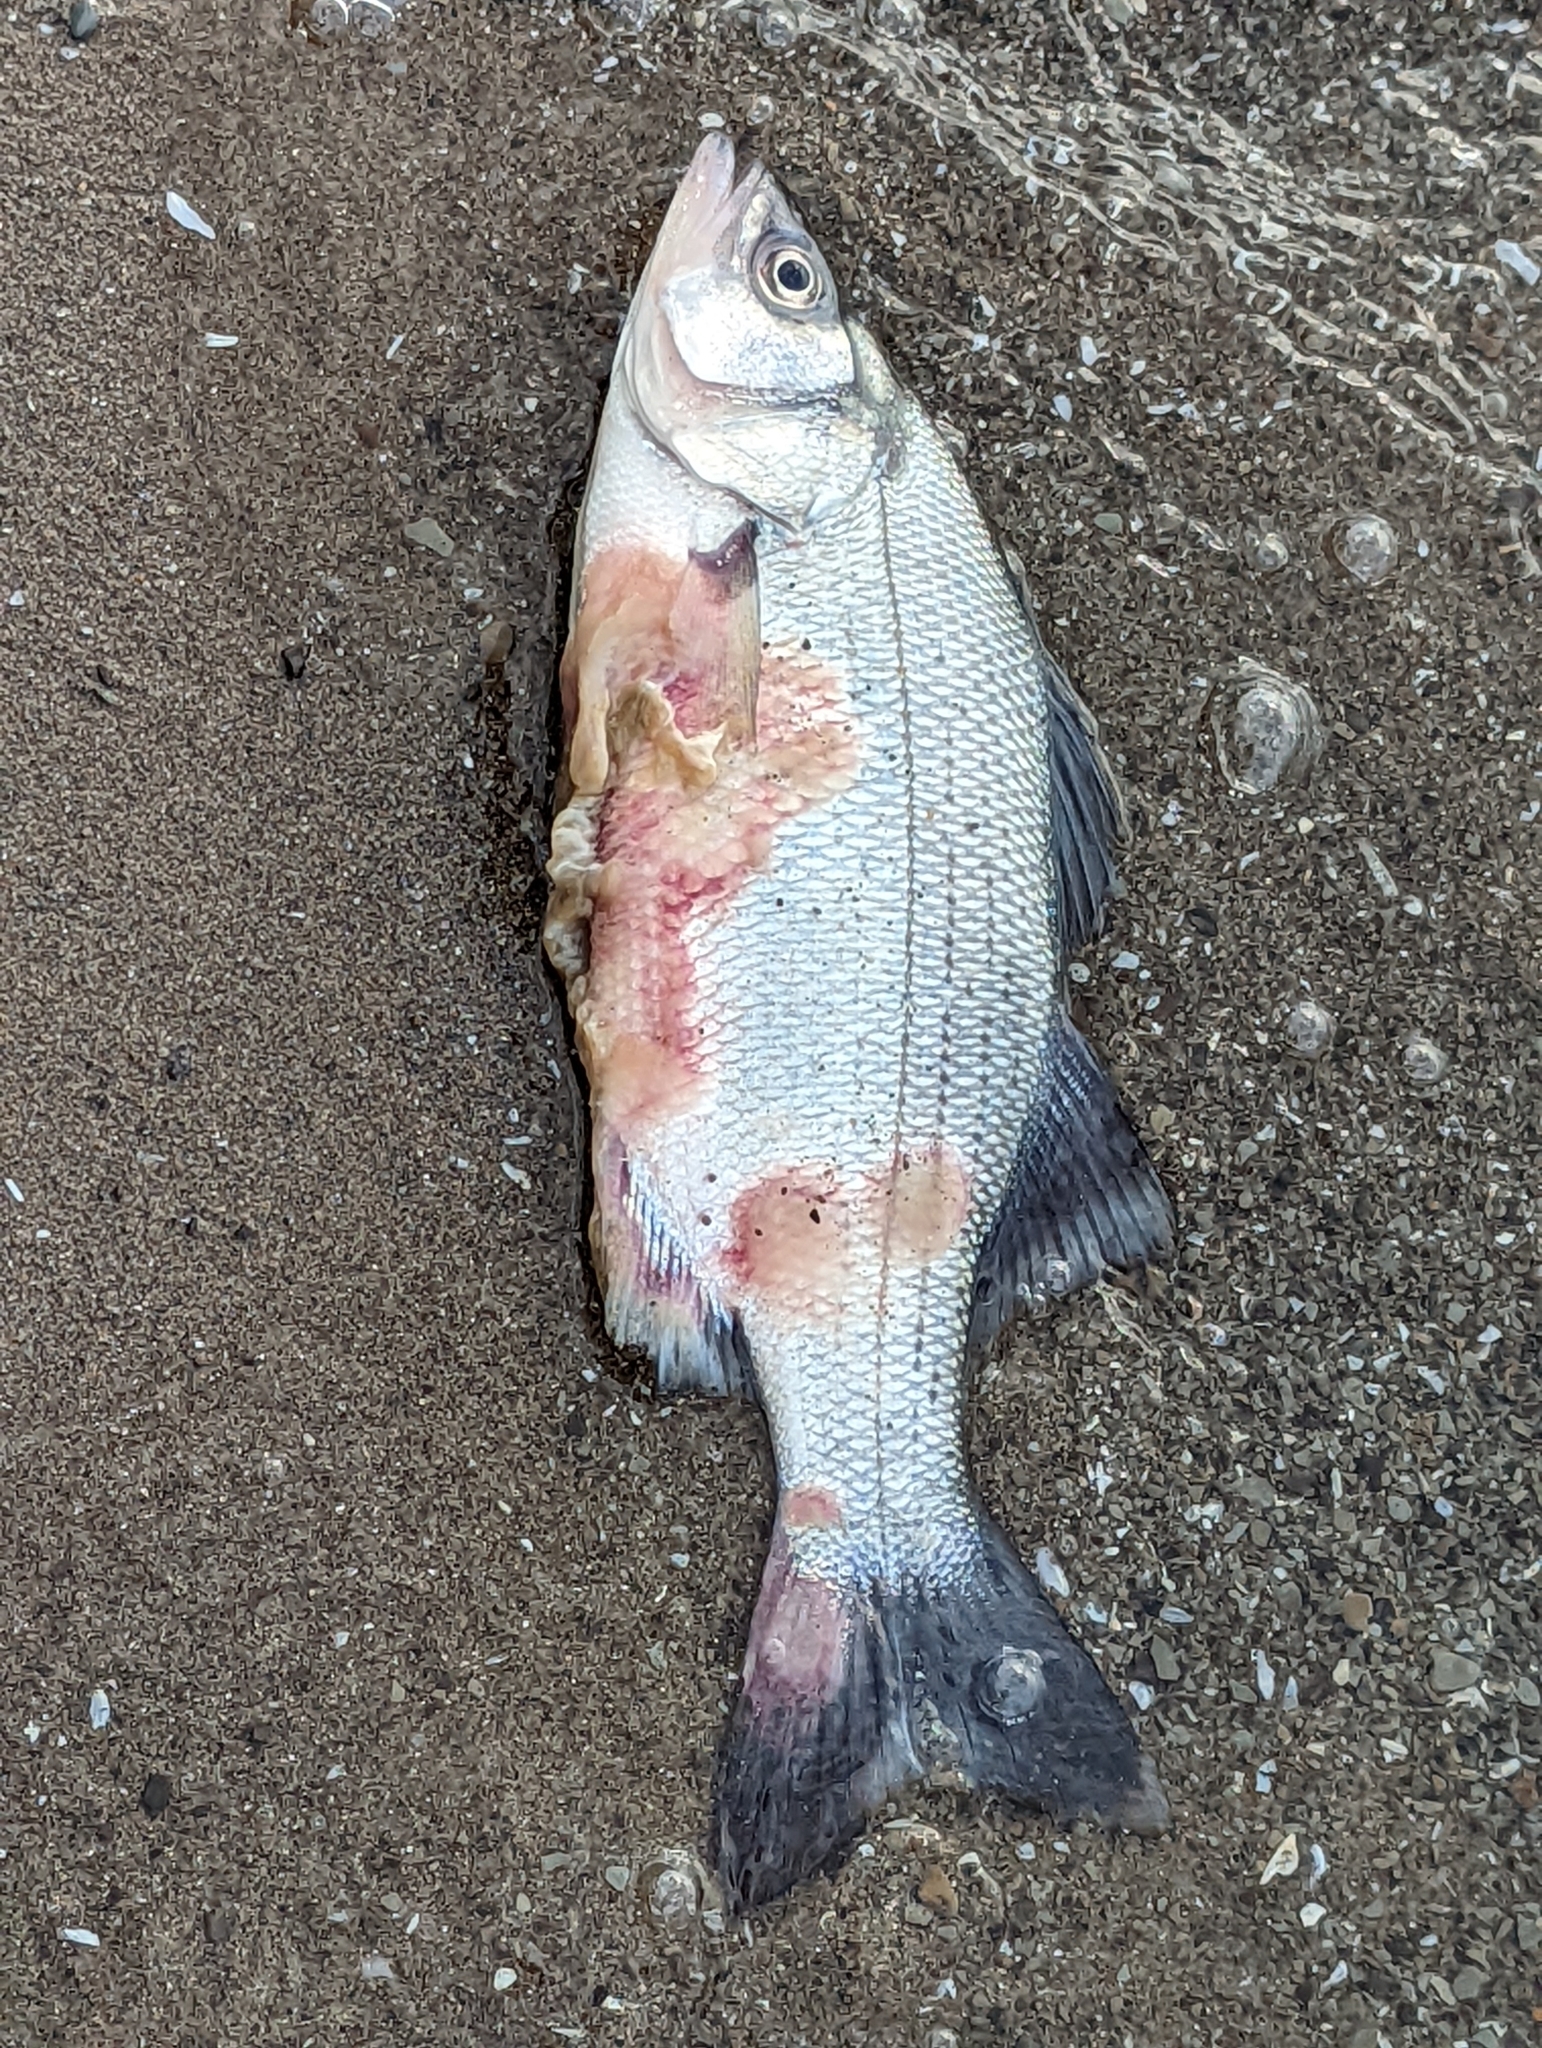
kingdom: Animalia
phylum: Chordata
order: Perciformes
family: Moronidae
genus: Morone
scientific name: Morone chrysops
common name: White bass
